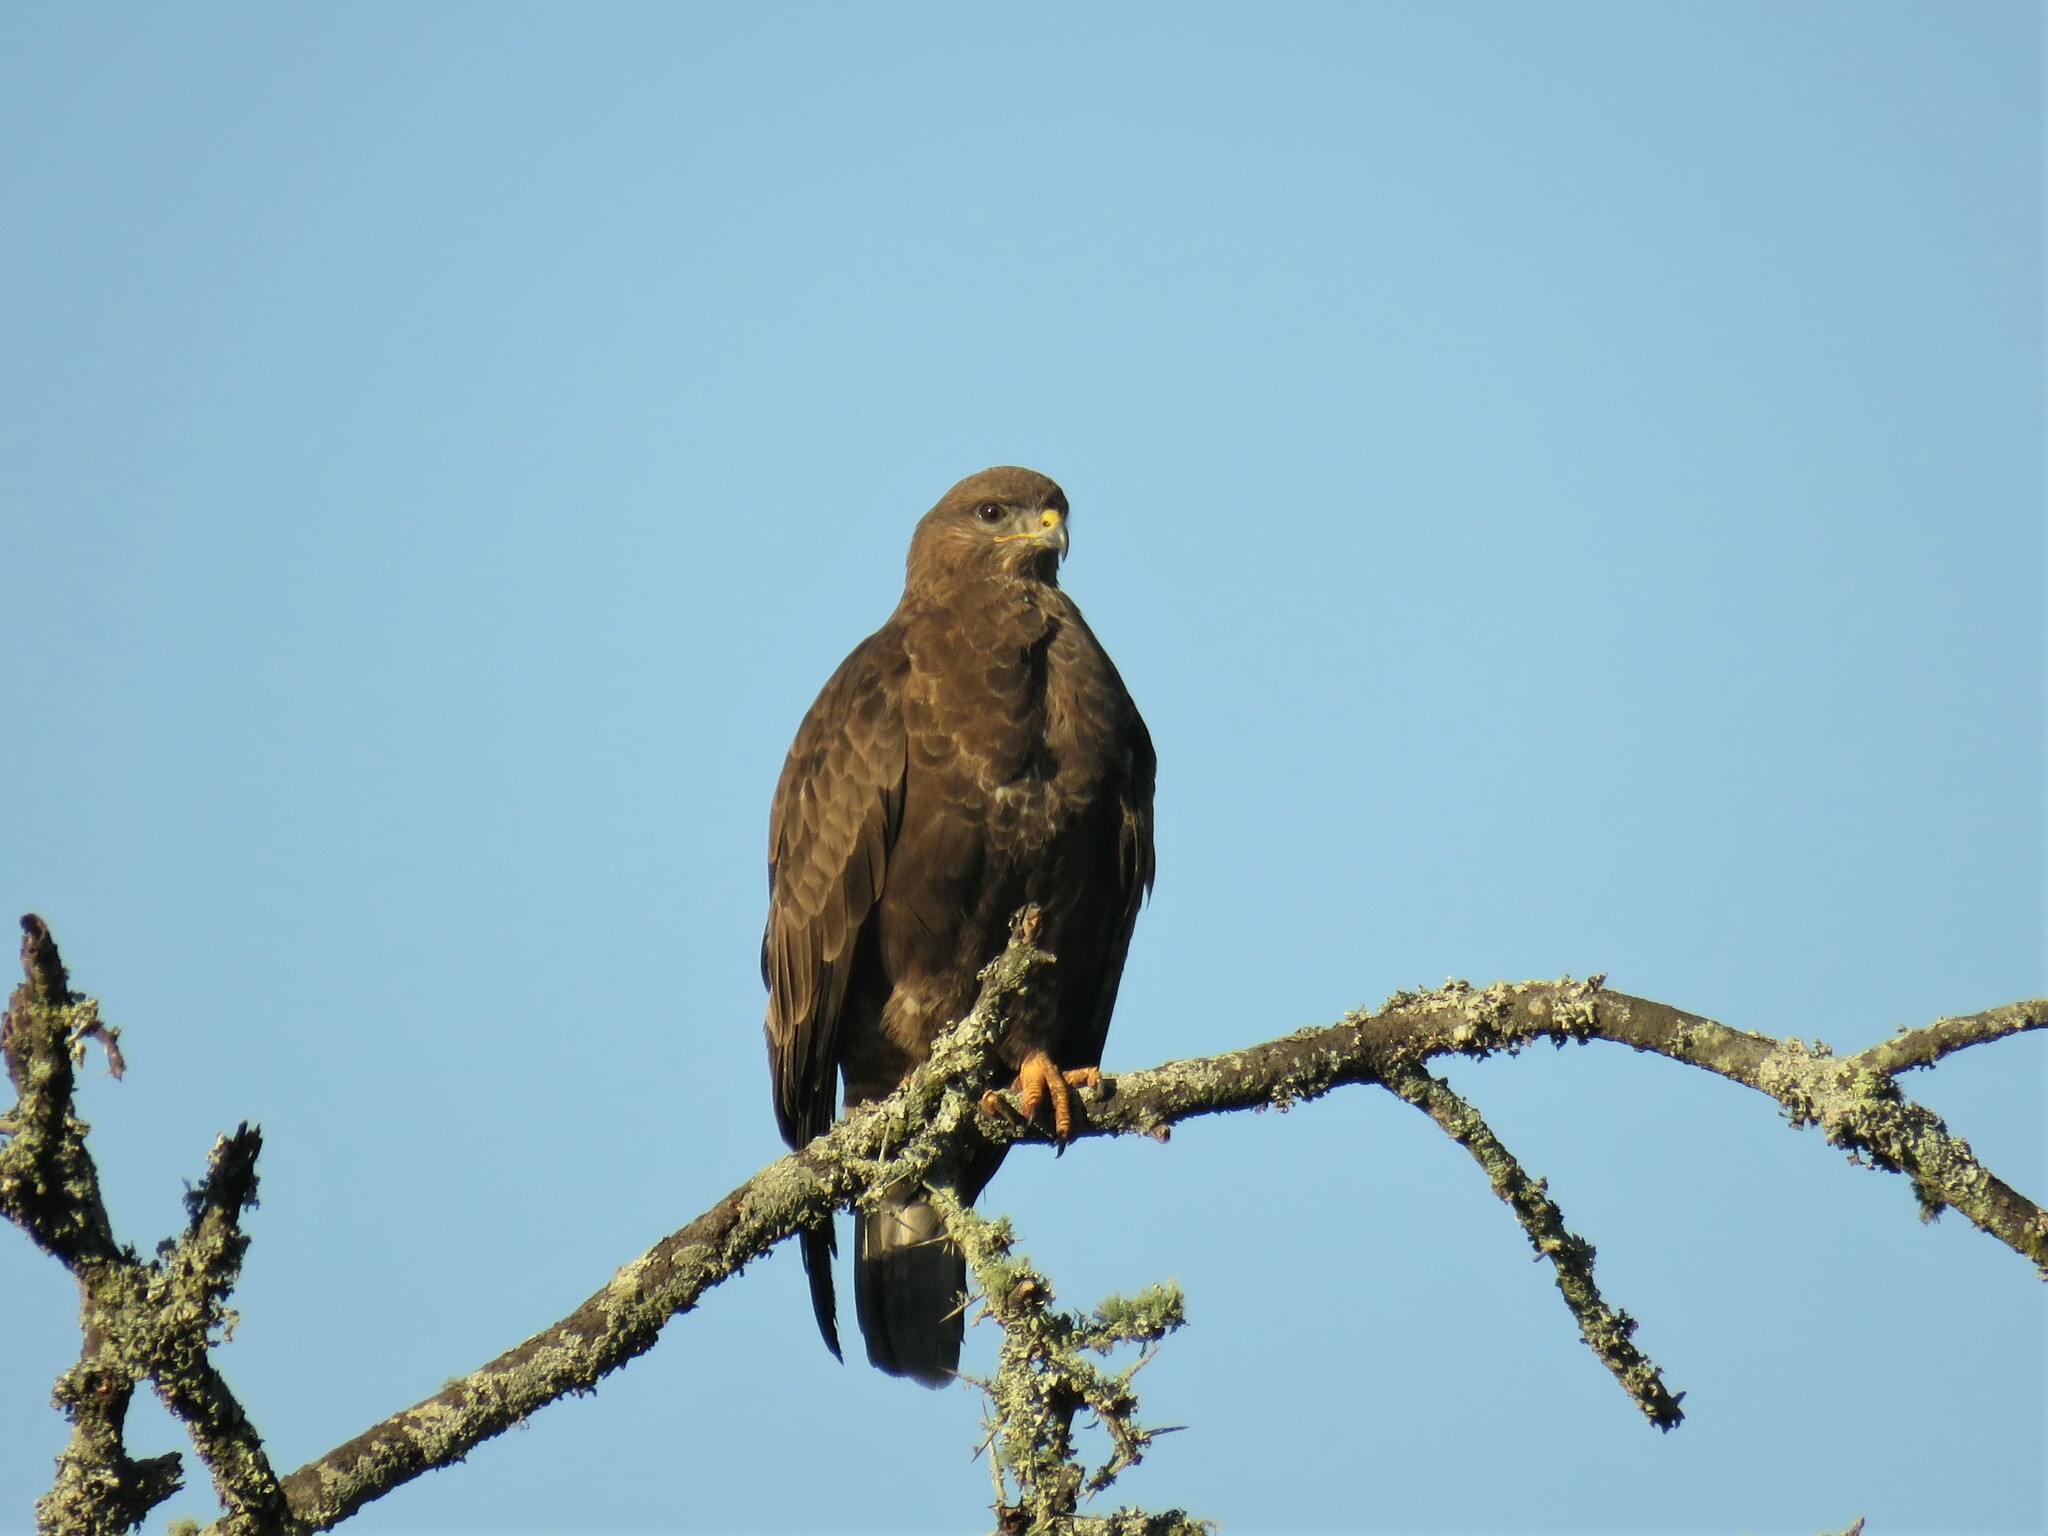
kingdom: Animalia
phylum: Chordata
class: Aves
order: Accipitriformes
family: Accipitridae
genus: Buteo
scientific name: Buteo buteo
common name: Common buzzard
